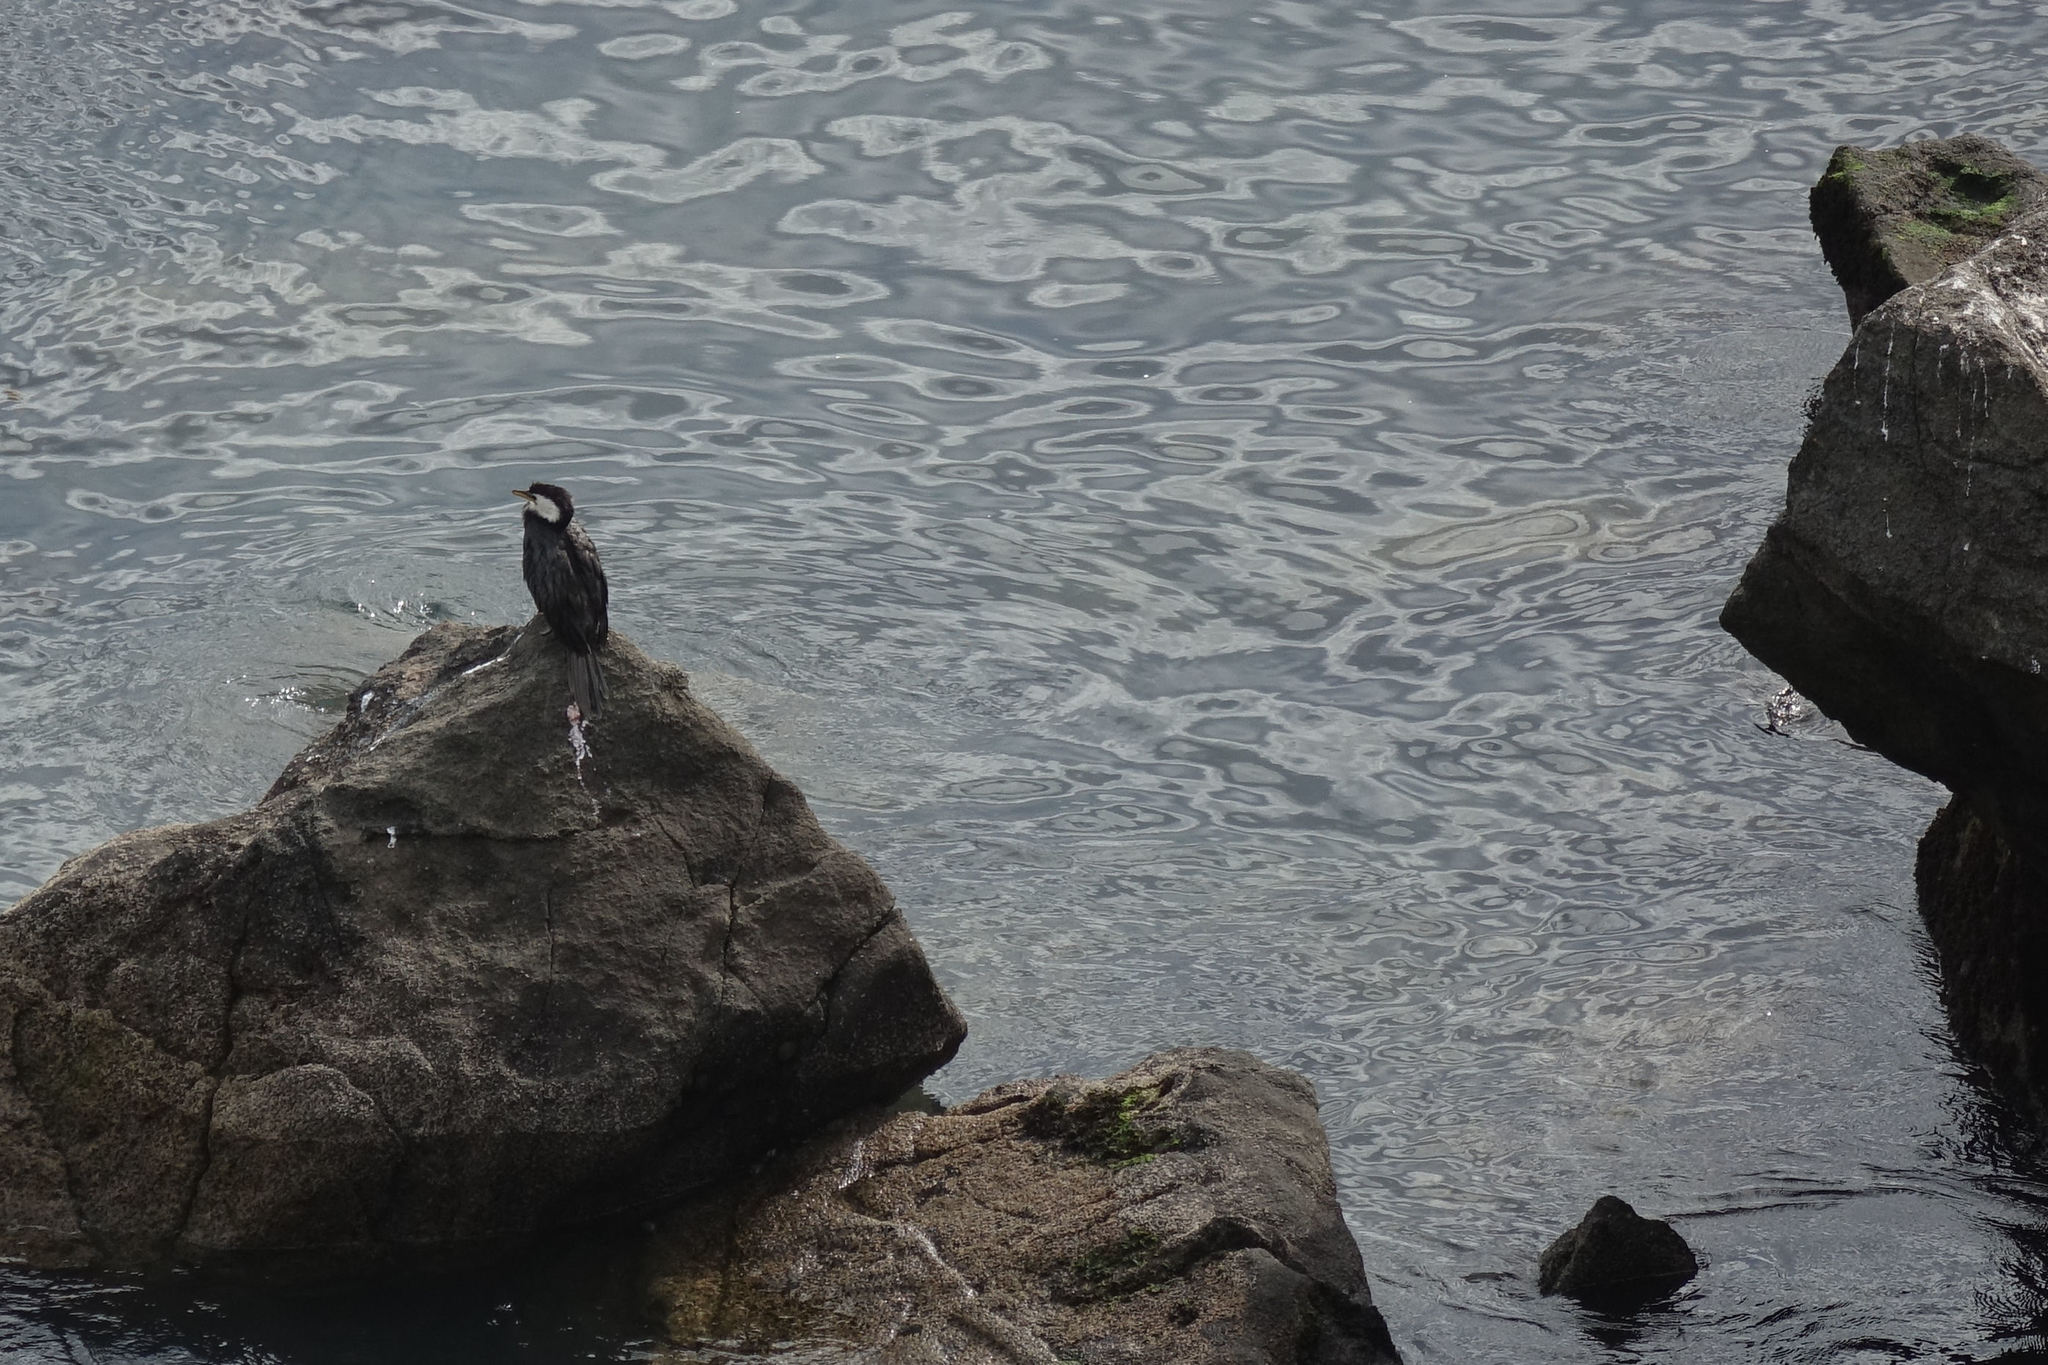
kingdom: Animalia
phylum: Chordata
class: Aves
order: Suliformes
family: Phalacrocoracidae
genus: Microcarbo
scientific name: Microcarbo melanoleucos
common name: Little pied cormorant
